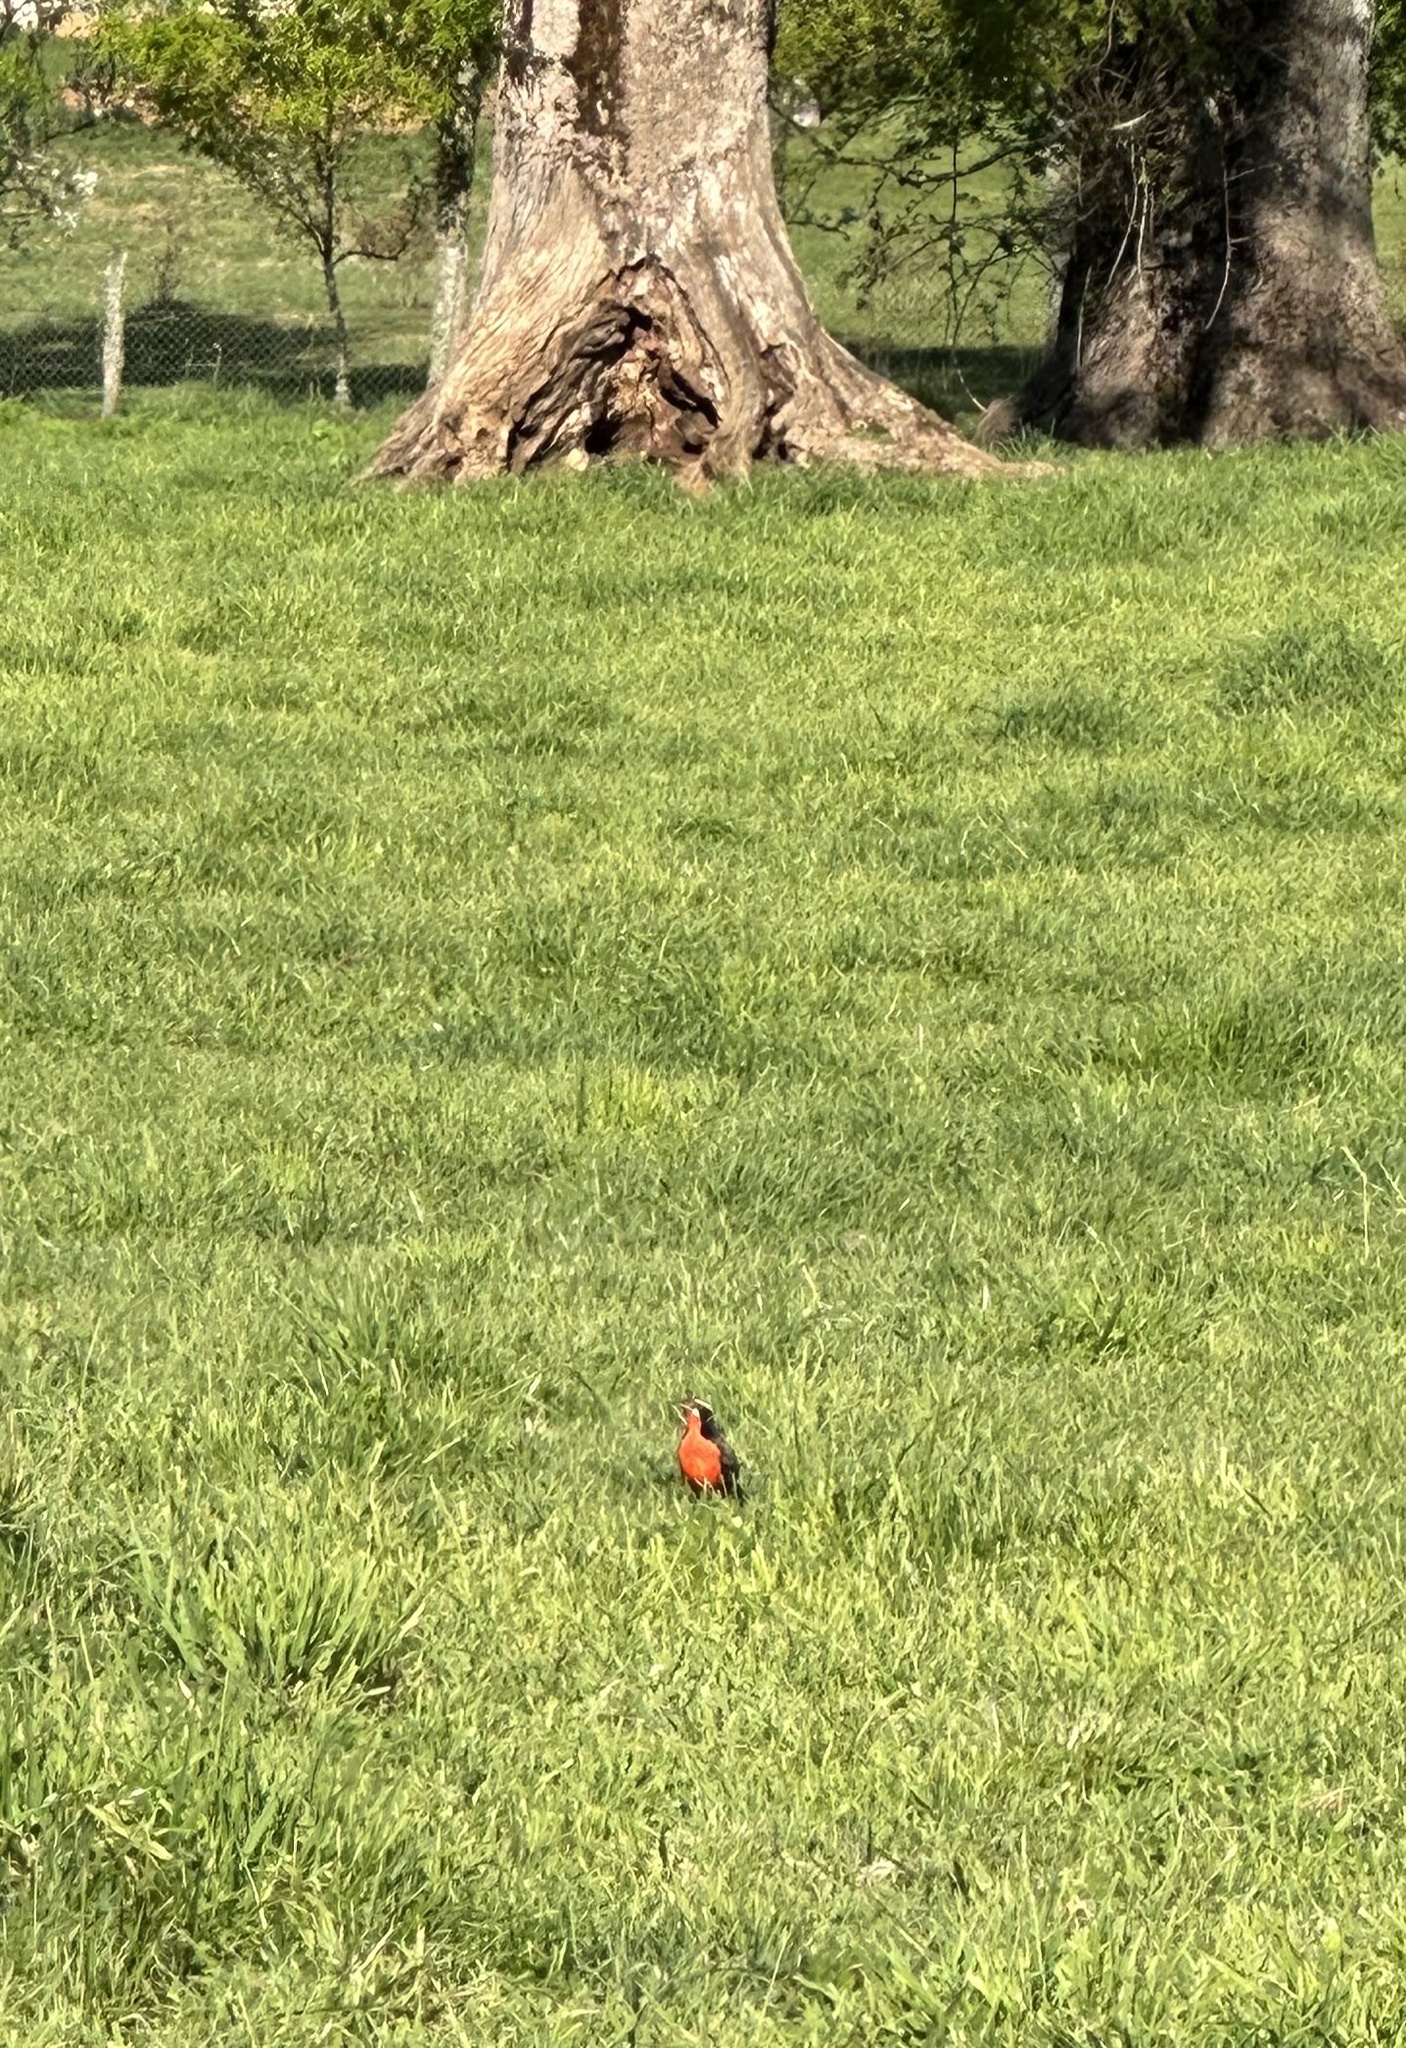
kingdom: Animalia
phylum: Chordata
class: Aves
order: Passeriformes
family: Icteridae
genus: Sturnella
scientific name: Sturnella loyca
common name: Long-tailed meadowlark
